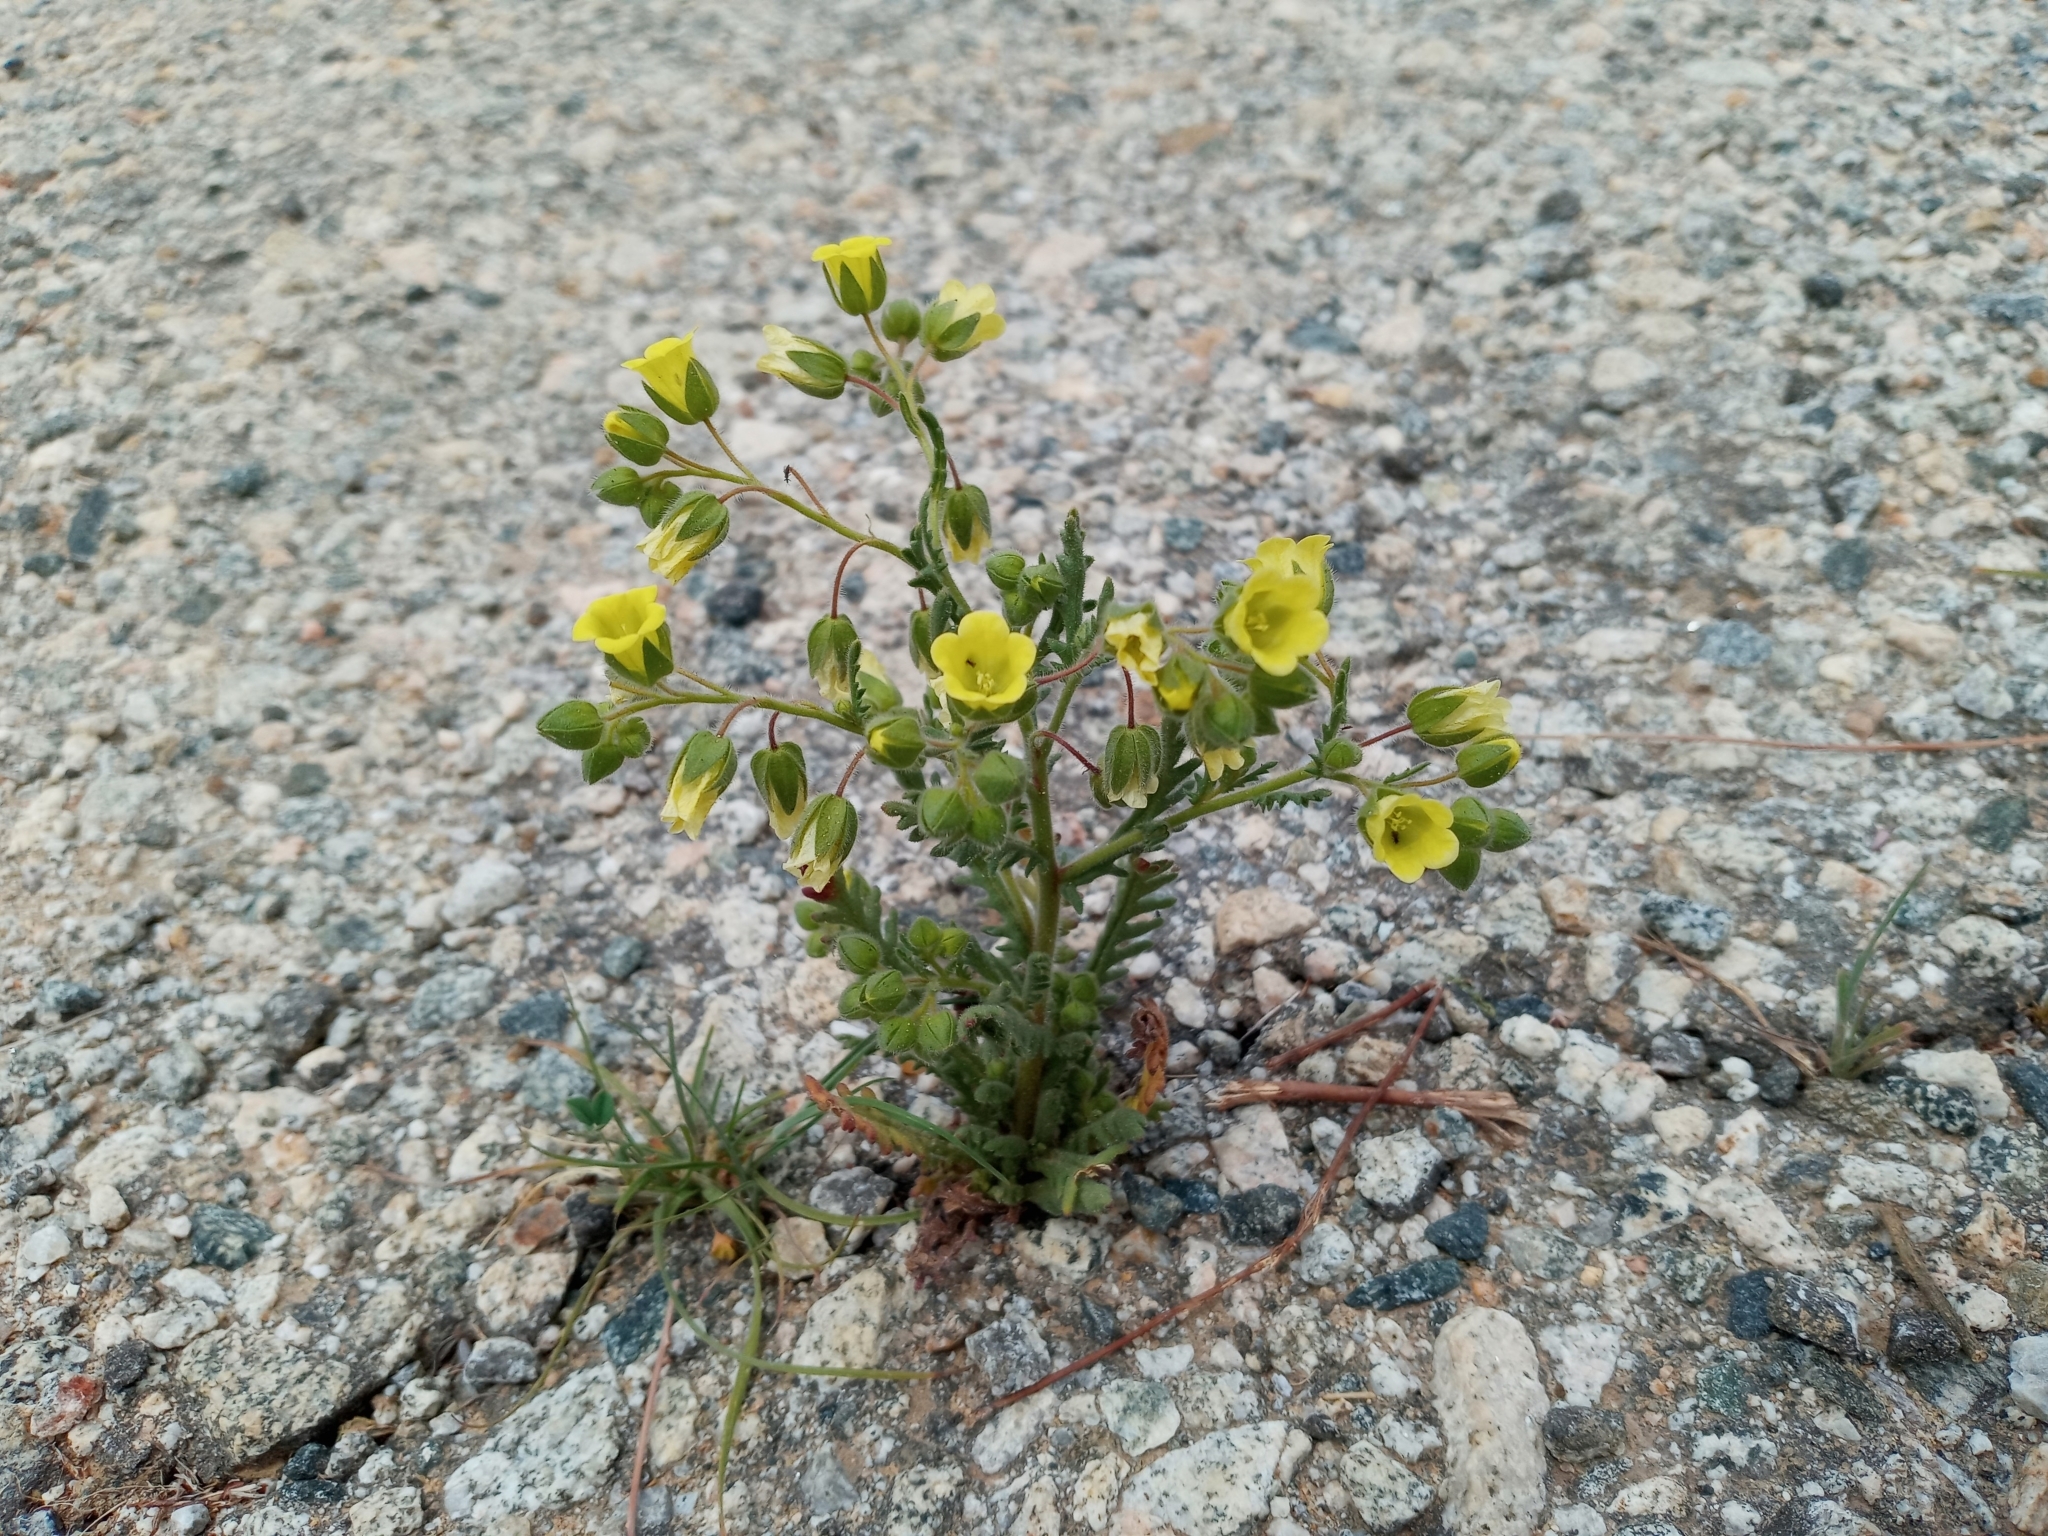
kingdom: Plantae
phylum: Tracheophyta
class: Magnoliopsida
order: Boraginales
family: Hydrophyllaceae
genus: Emmenanthe
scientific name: Emmenanthe penduliflora
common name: Whispering-bells
